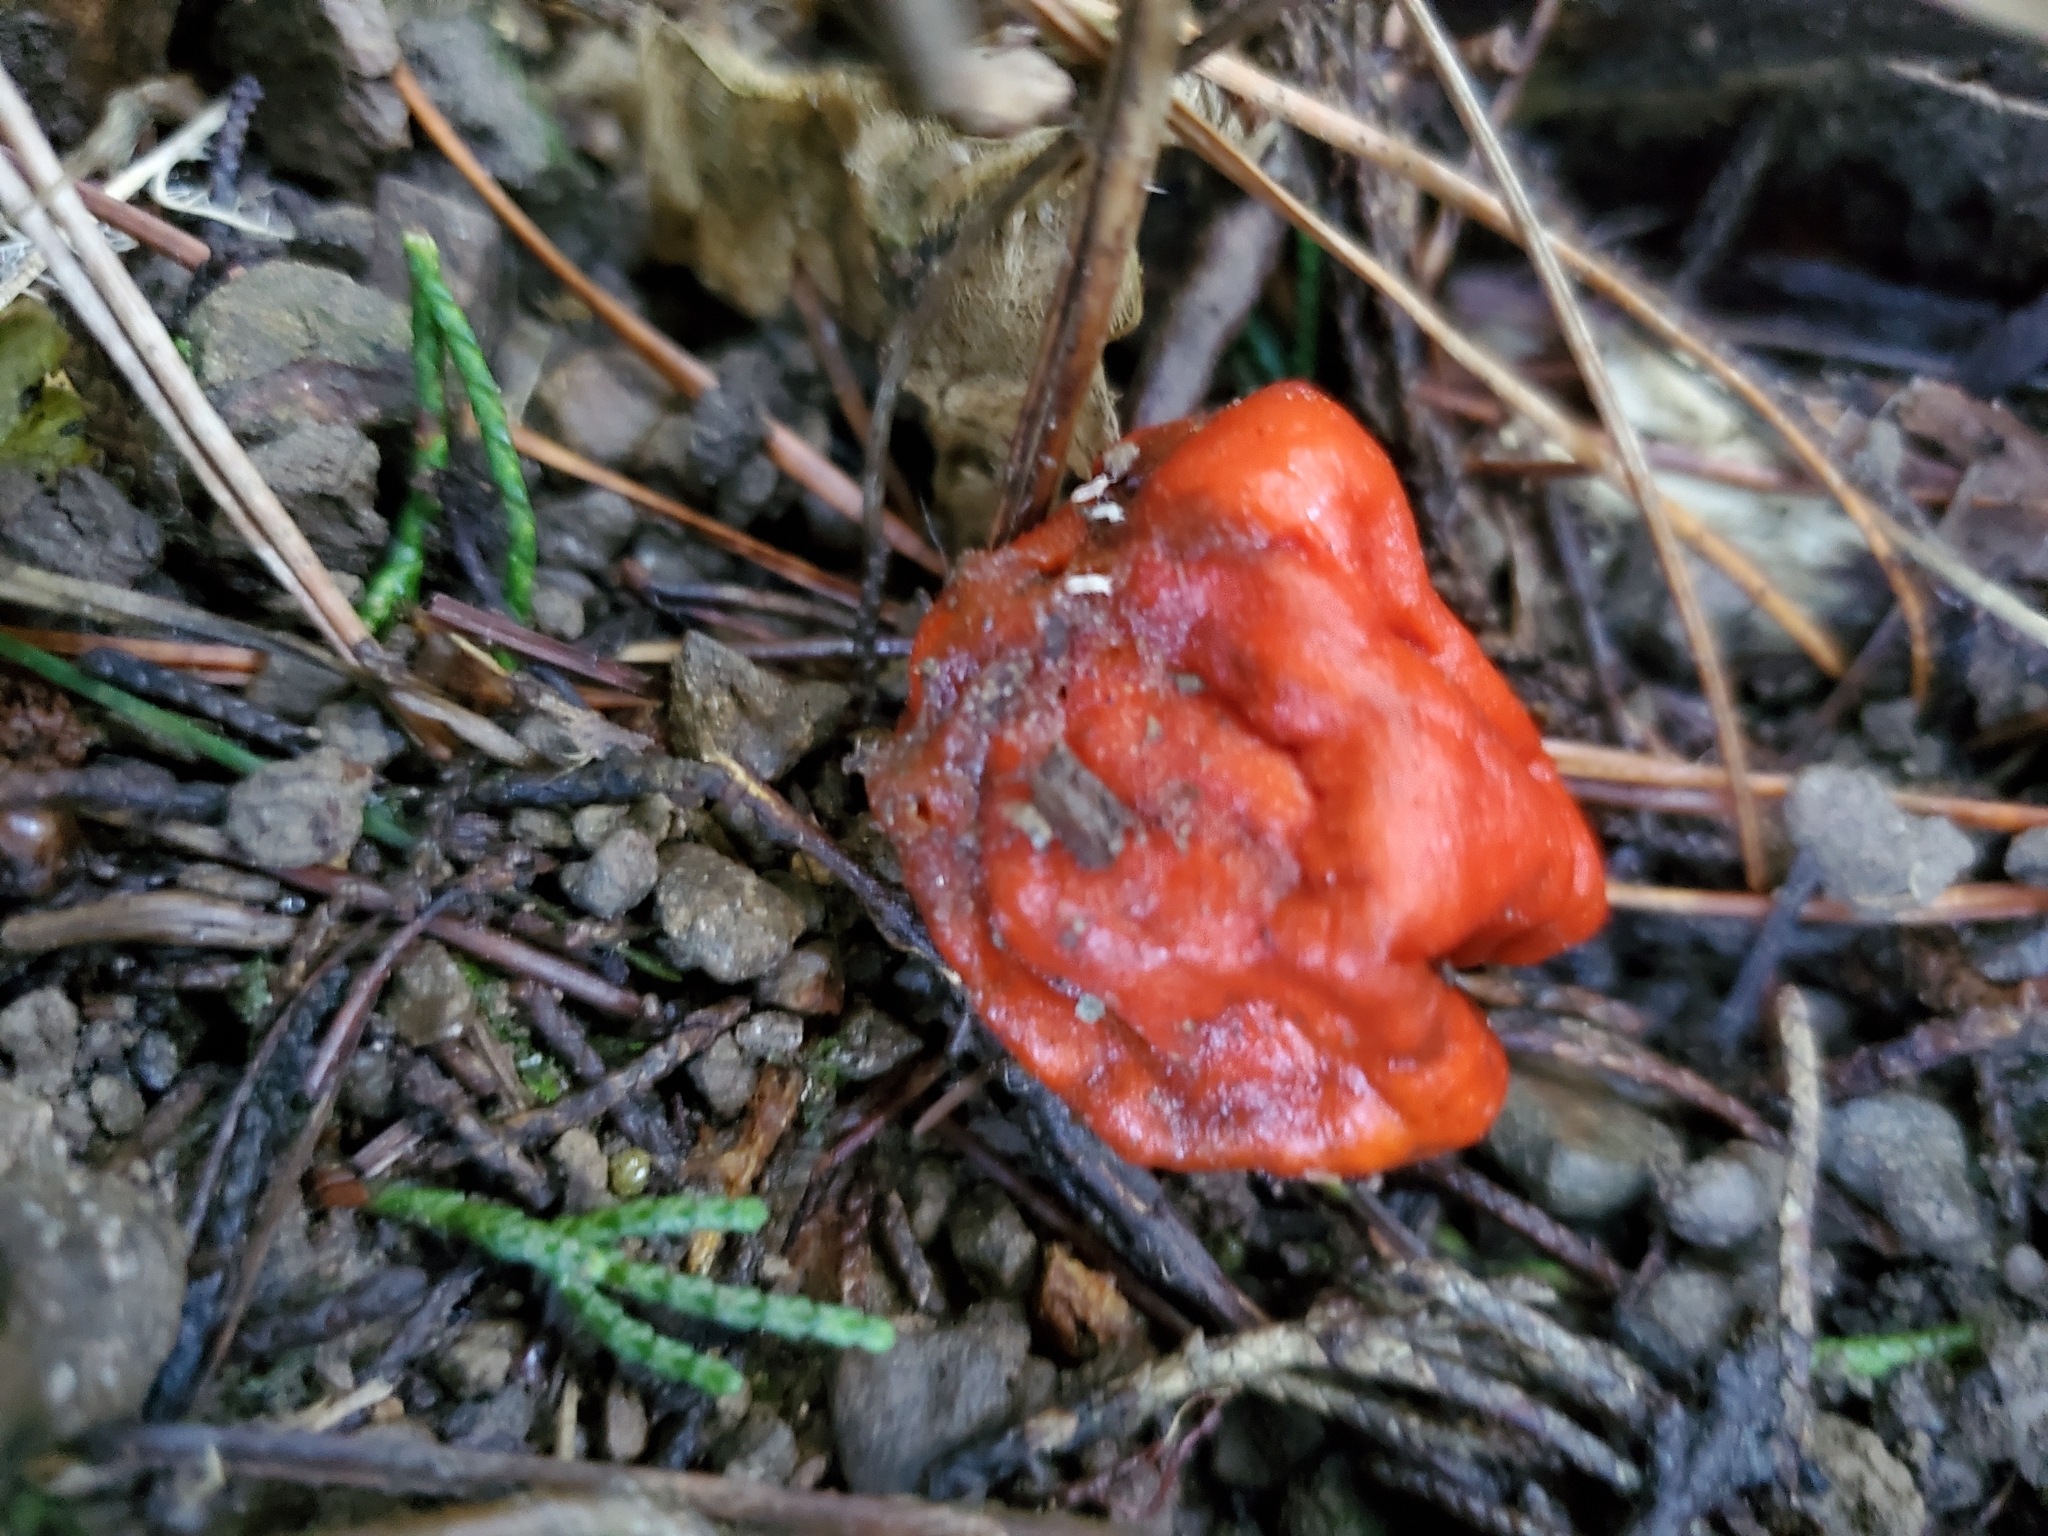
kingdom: Fungi
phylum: Ascomycota
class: Pezizomycetes
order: Pezizales
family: Pyronemataceae
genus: Paurocotylis
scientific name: Paurocotylis pila
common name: Scarlet berry truffle
